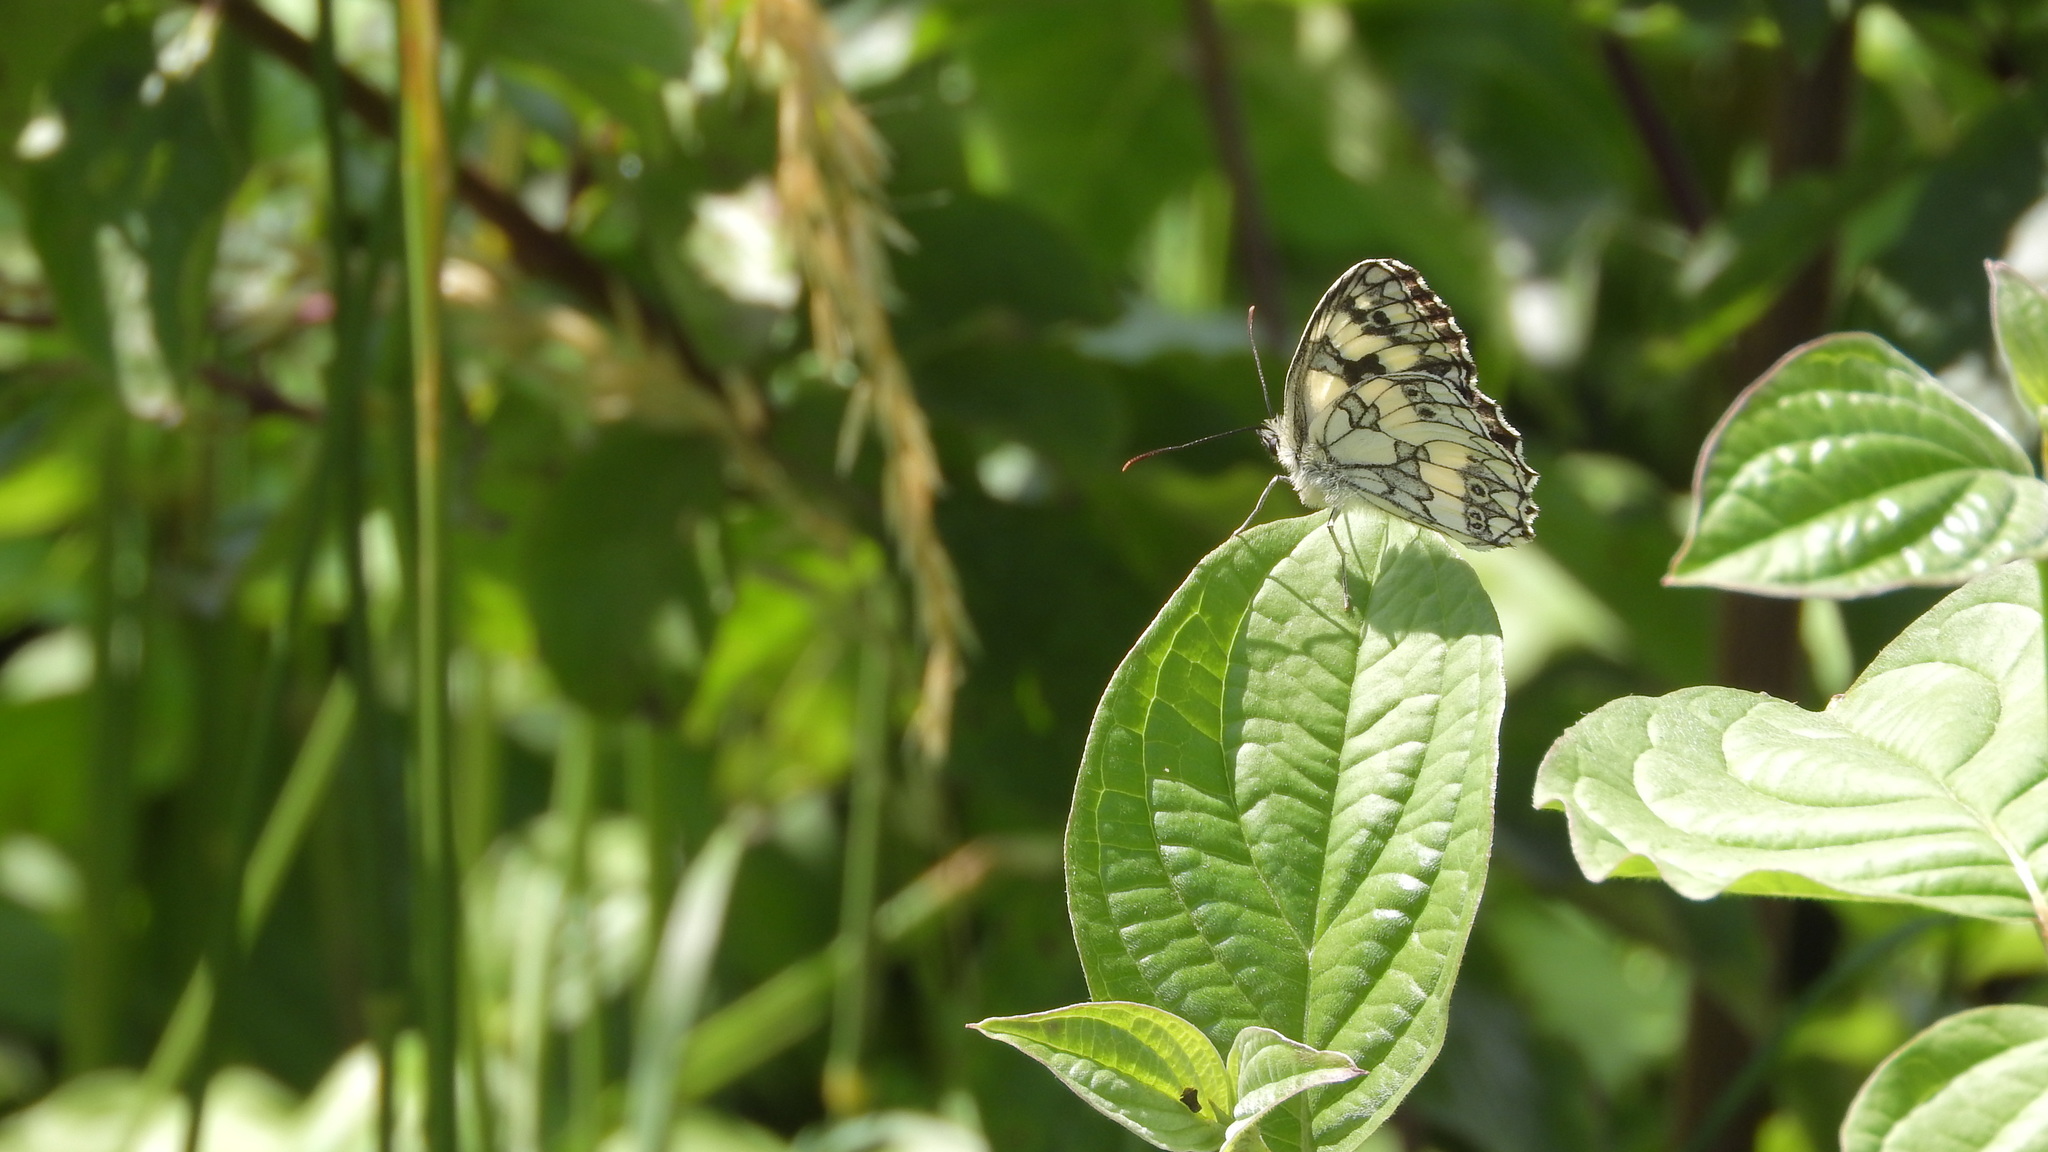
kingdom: Animalia
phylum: Arthropoda
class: Insecta
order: Lepidoptera
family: Nymphalidae
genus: Melanargia
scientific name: Melanargia galathea
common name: Marbled white
